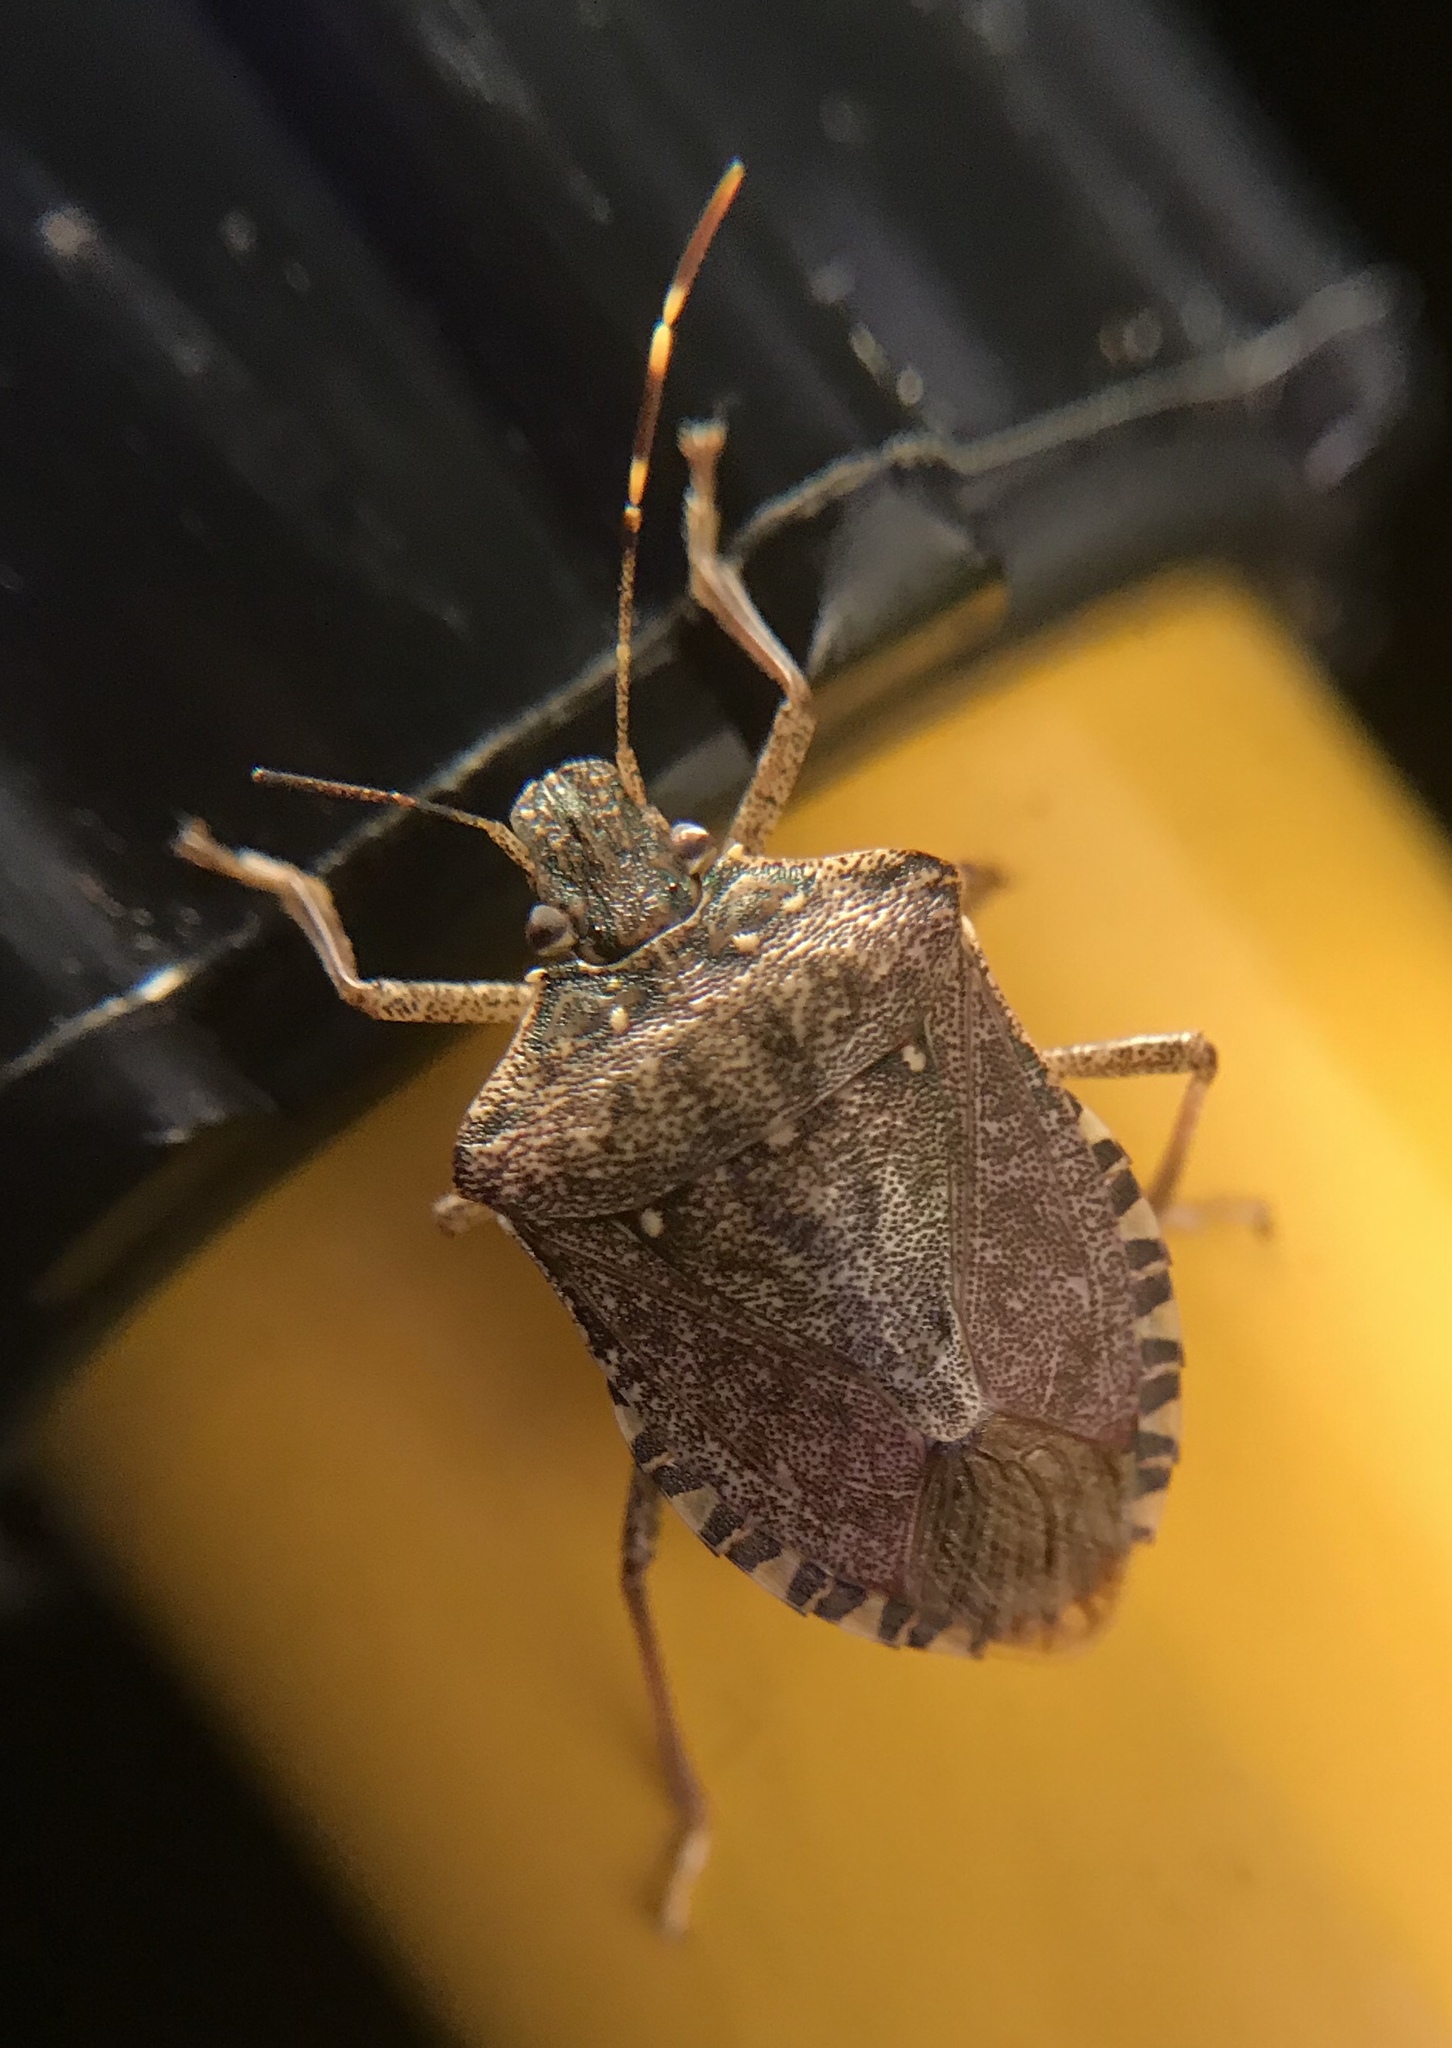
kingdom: Animalia
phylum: Arthropoda
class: Insecta
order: Hemiptera
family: Pentatomidae
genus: Halyomorpha
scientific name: Halyomorpha halys
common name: Brown marmorated stink bug
